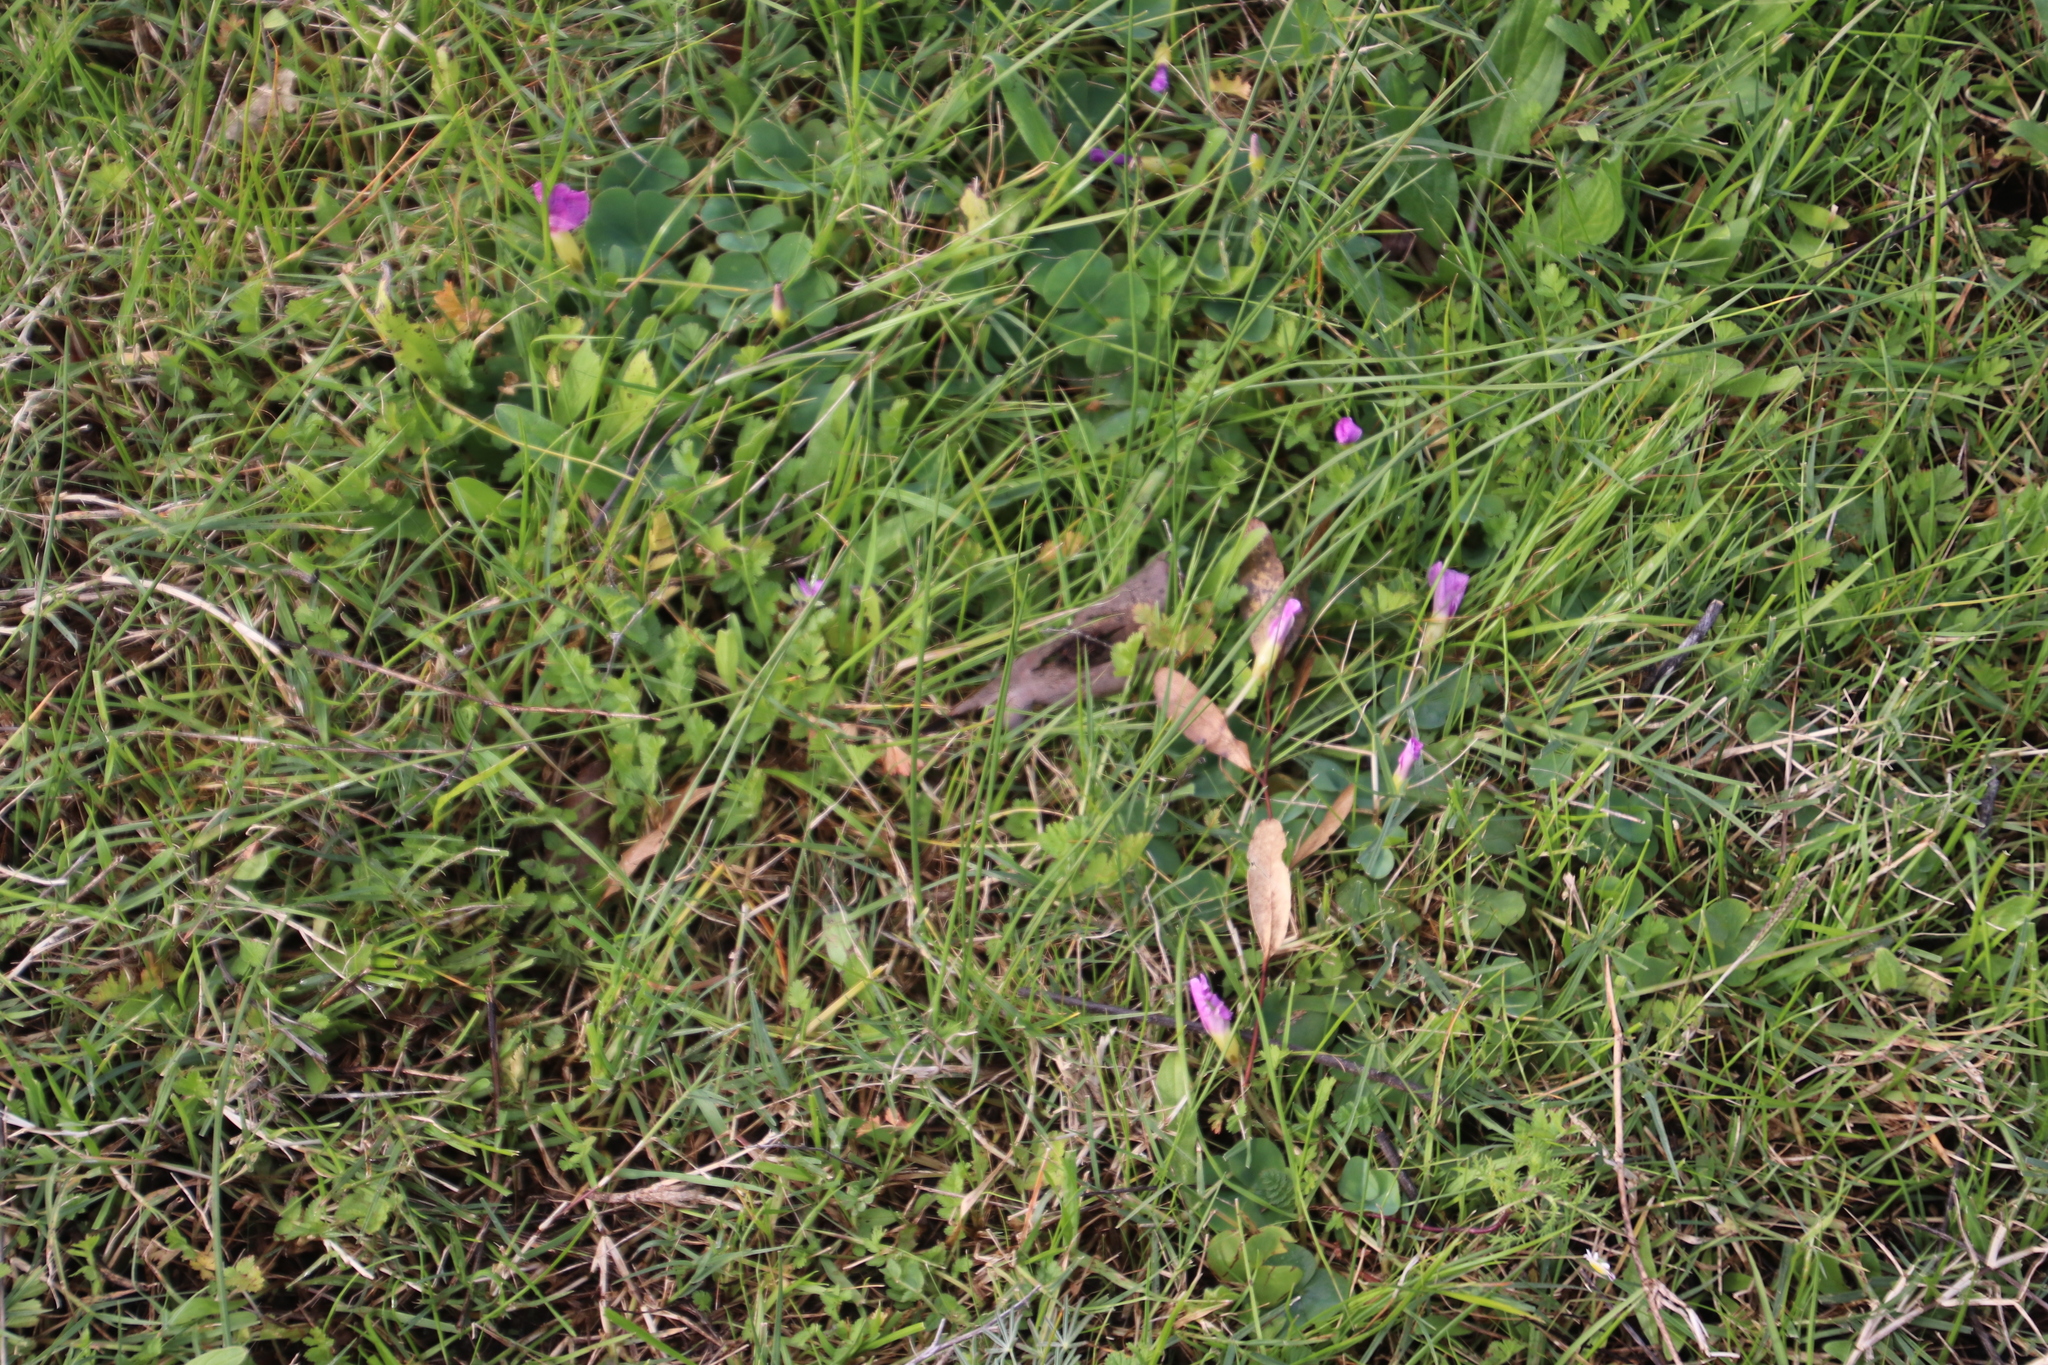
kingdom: Plantae
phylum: Tracheophyta
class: Magnoliopsida
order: Oxalidales
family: Oxalidaceae
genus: Oxalis
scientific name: Oxalis purpurea
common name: Purple woodsorrel
